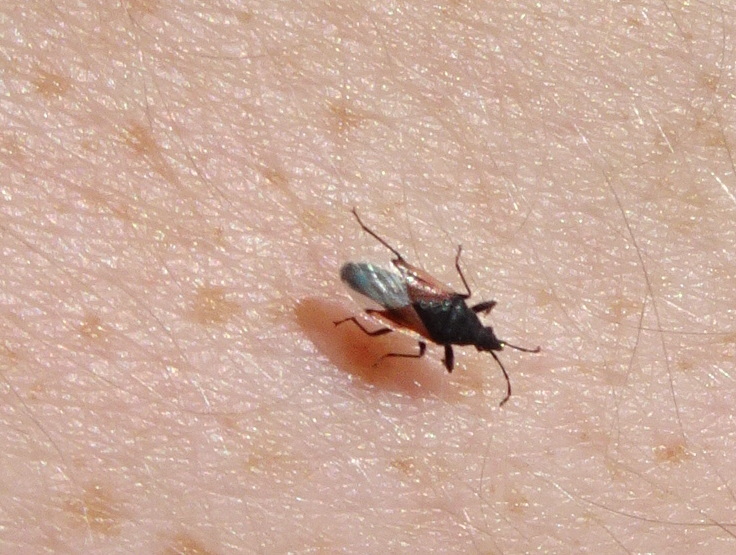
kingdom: Animalia
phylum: Arthropoda
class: Insecta
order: Hemiptera
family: Oxycarenidae
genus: Oxycarenus
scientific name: Oxycarenus lavaterae
